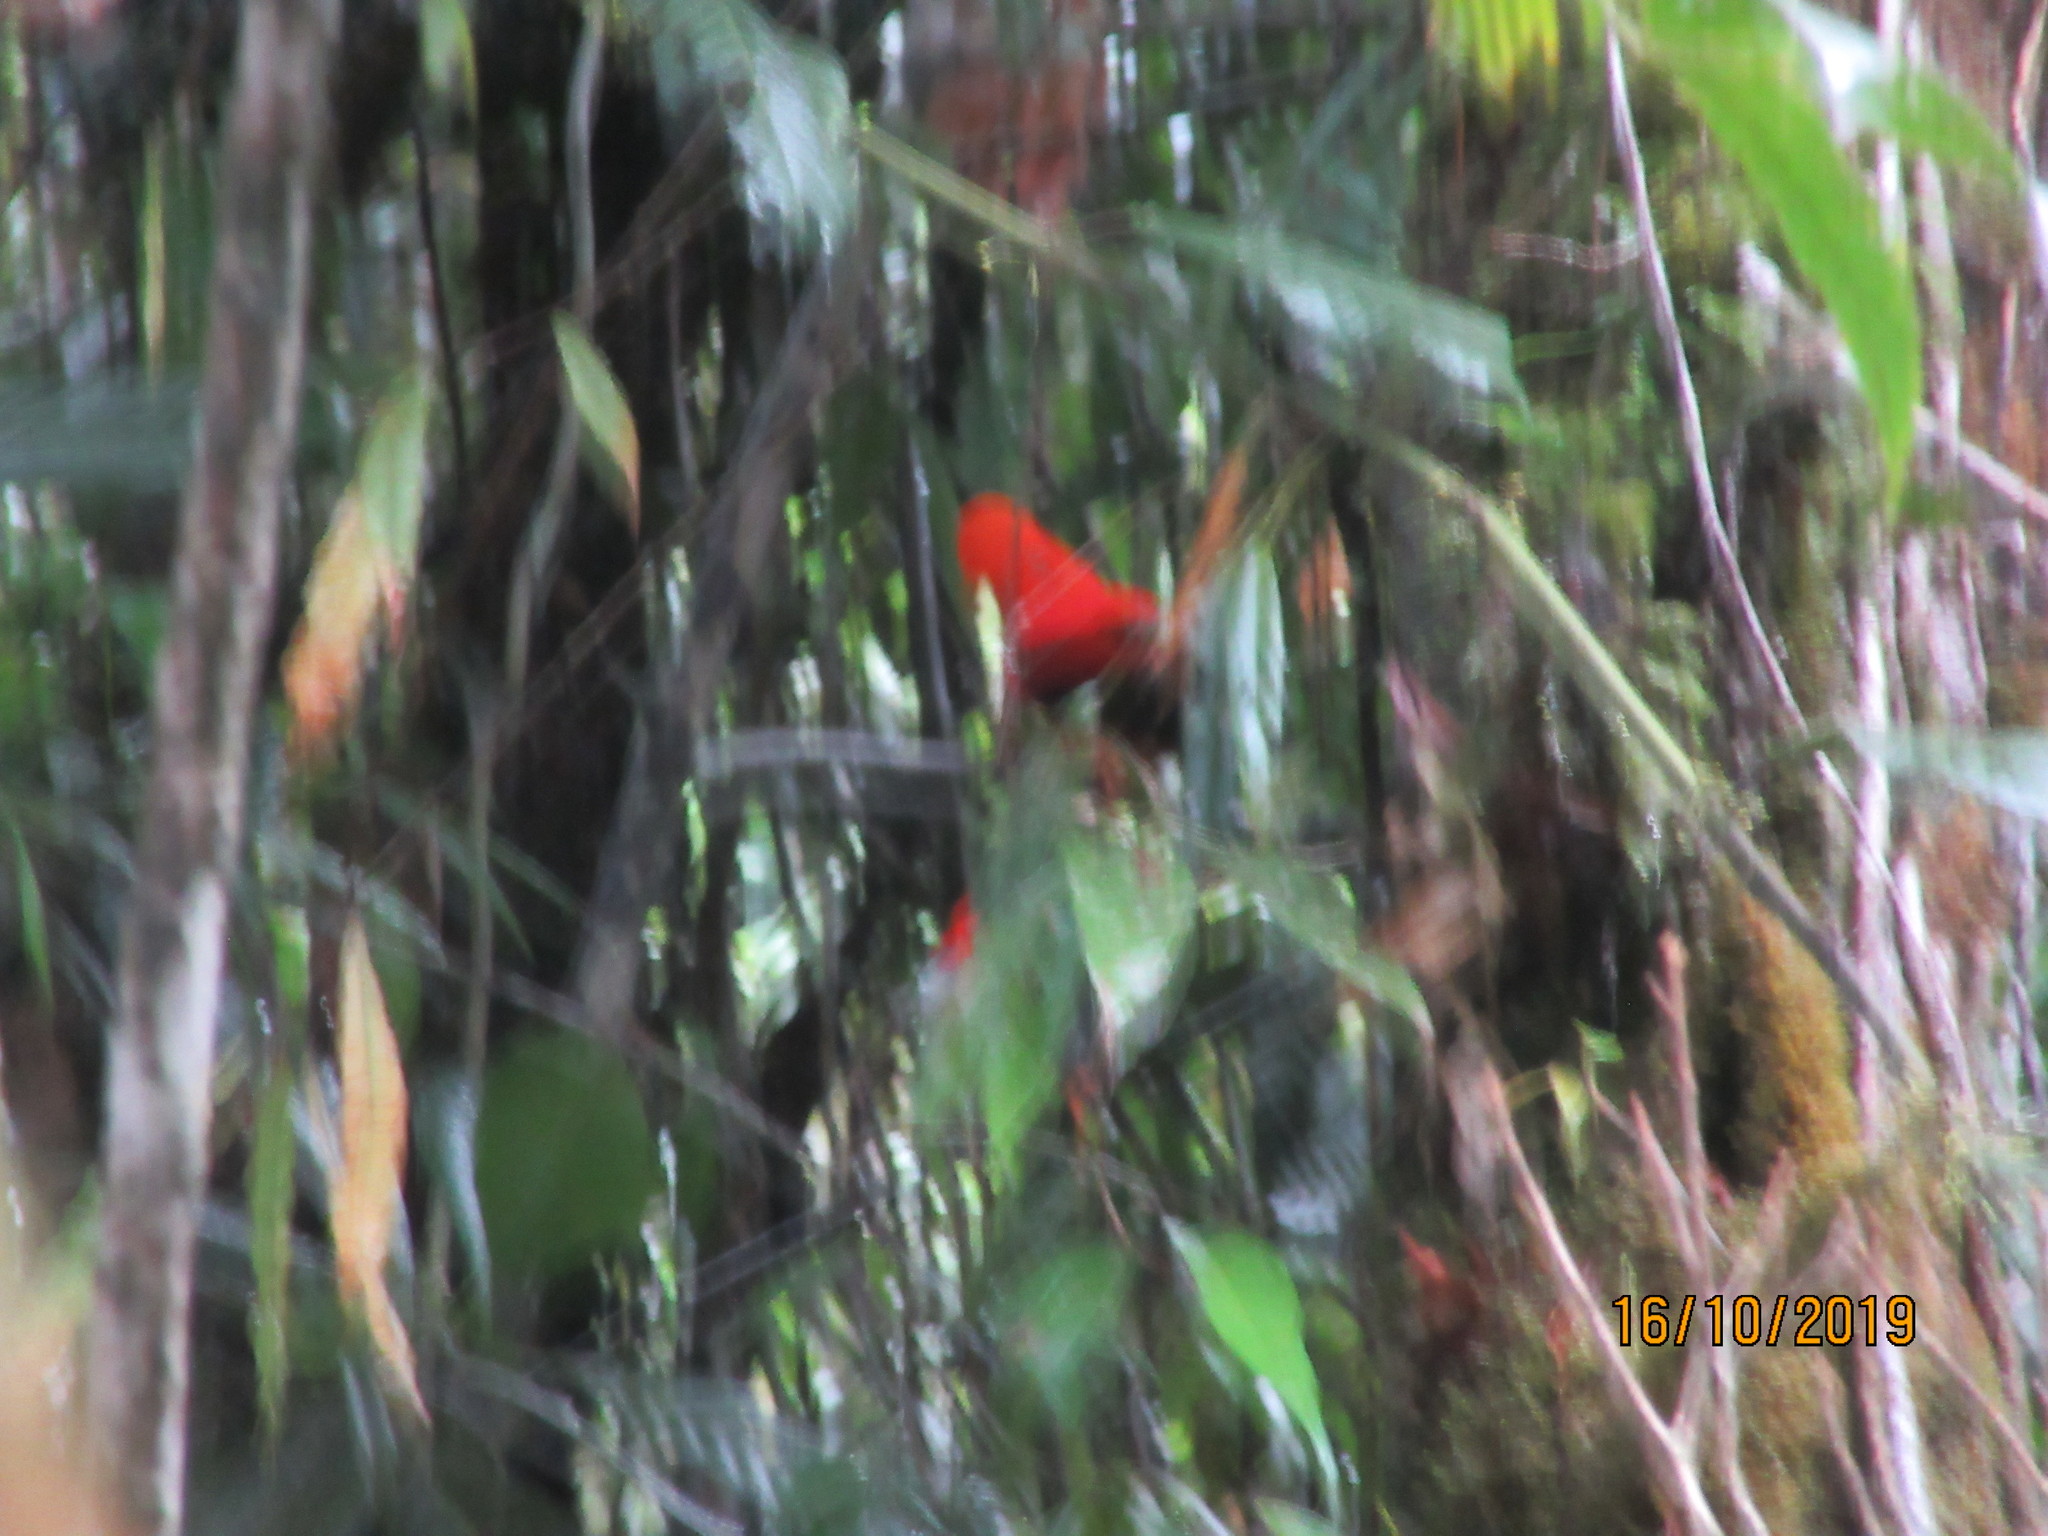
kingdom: Animalia
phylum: Chordata
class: Aves
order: Passeriformes
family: Cotingidae
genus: Rupicola
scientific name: Rupicola peruvianus
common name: Andean cock-of-the-rock
